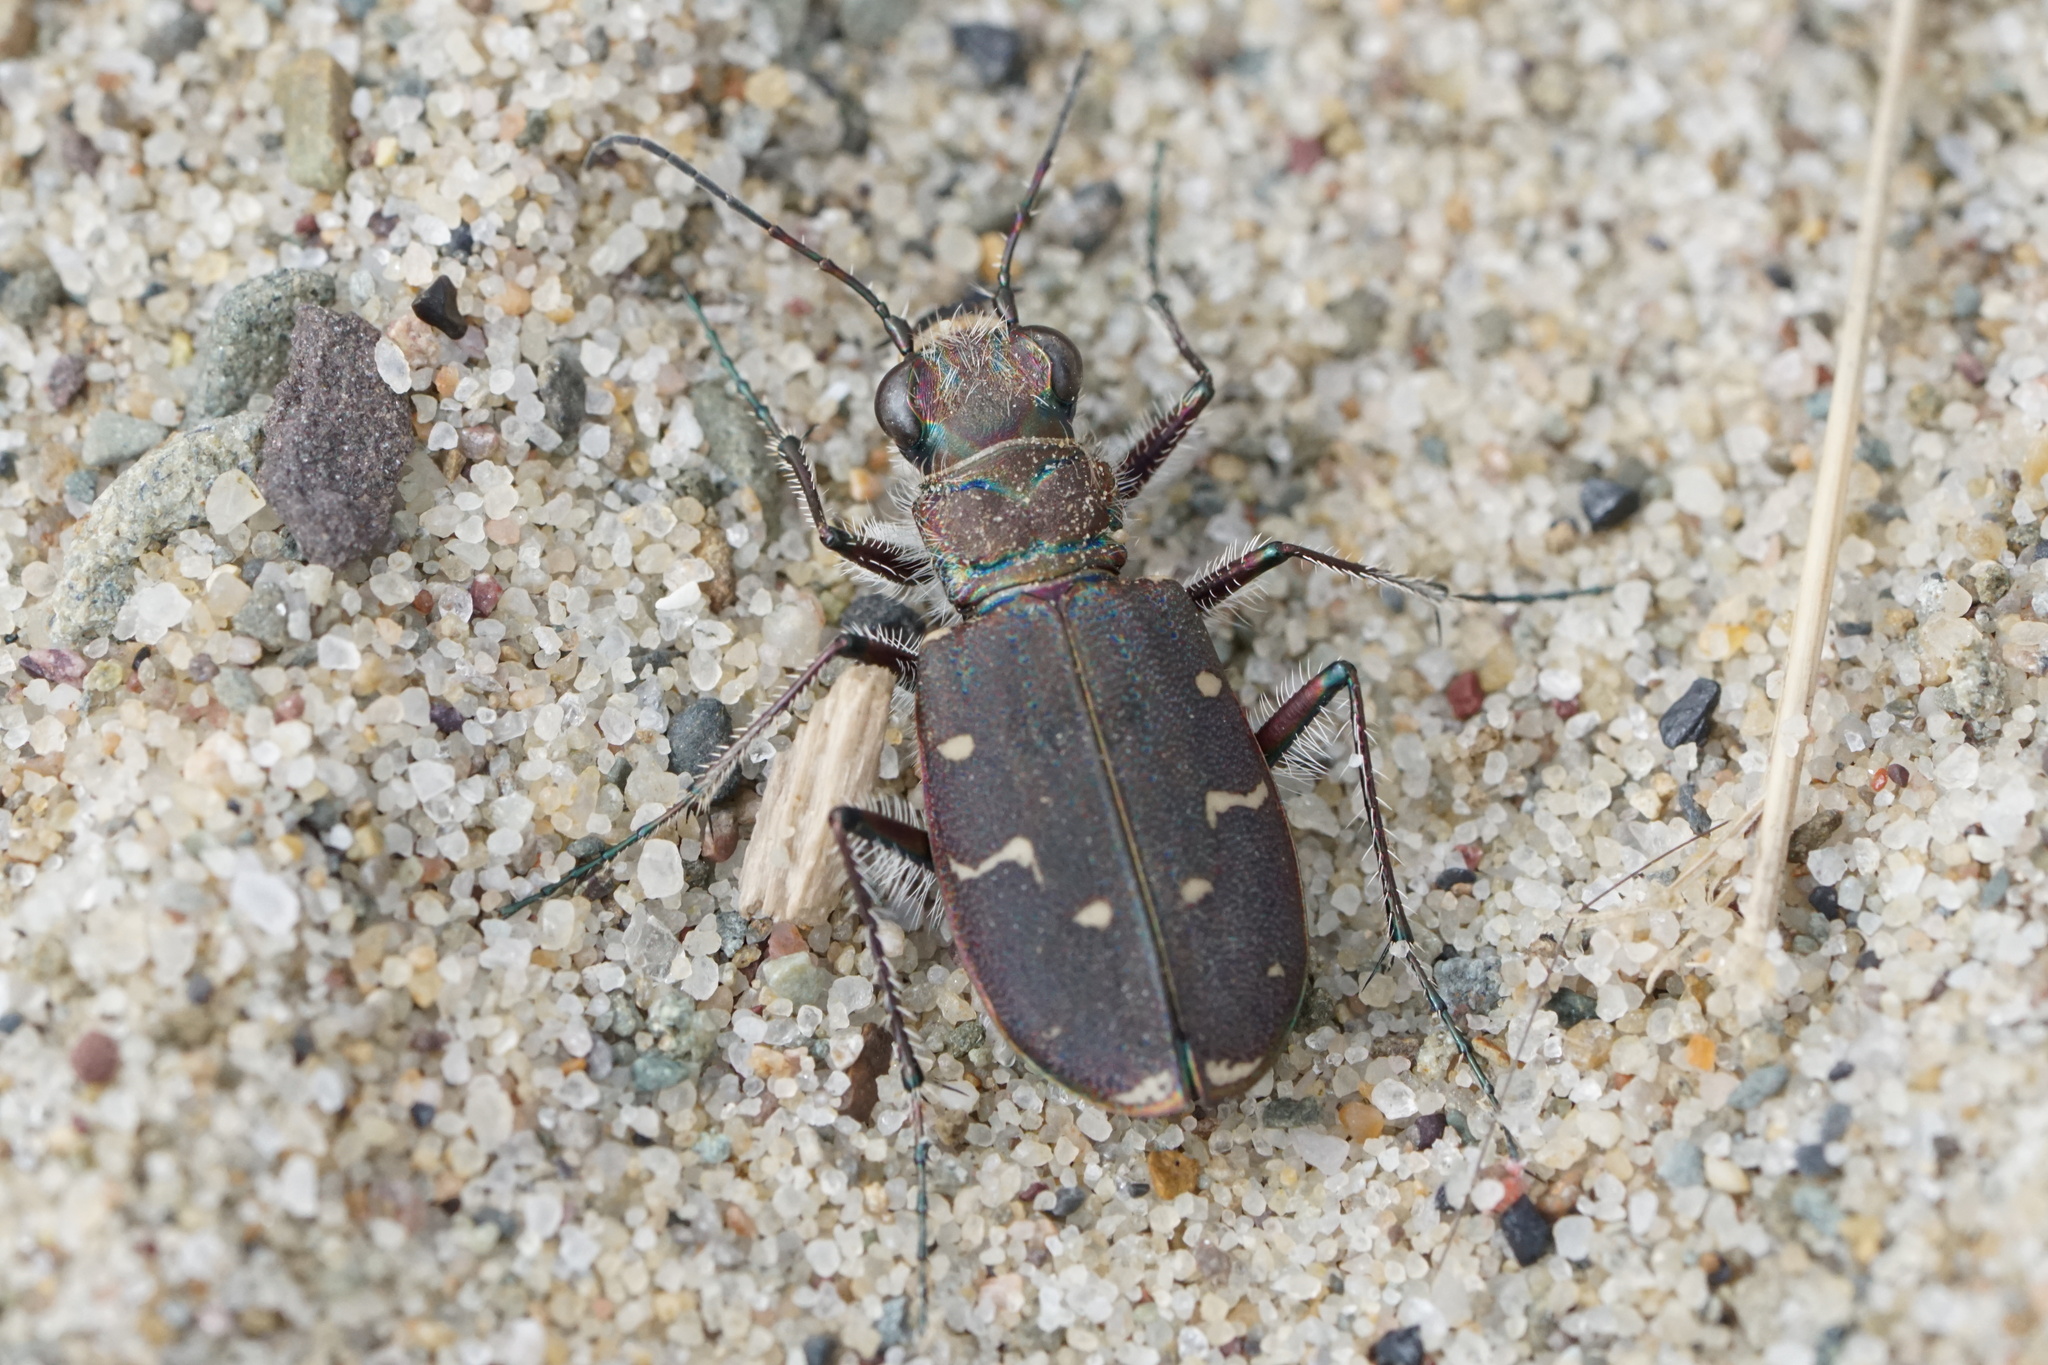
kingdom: Animalia
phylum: Arthropoda
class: Insecta
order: Coleoptera
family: Carabidae
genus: Cicindela
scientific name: Cicindela duodecimguttata
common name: Twelve-spotted tiger beetle
